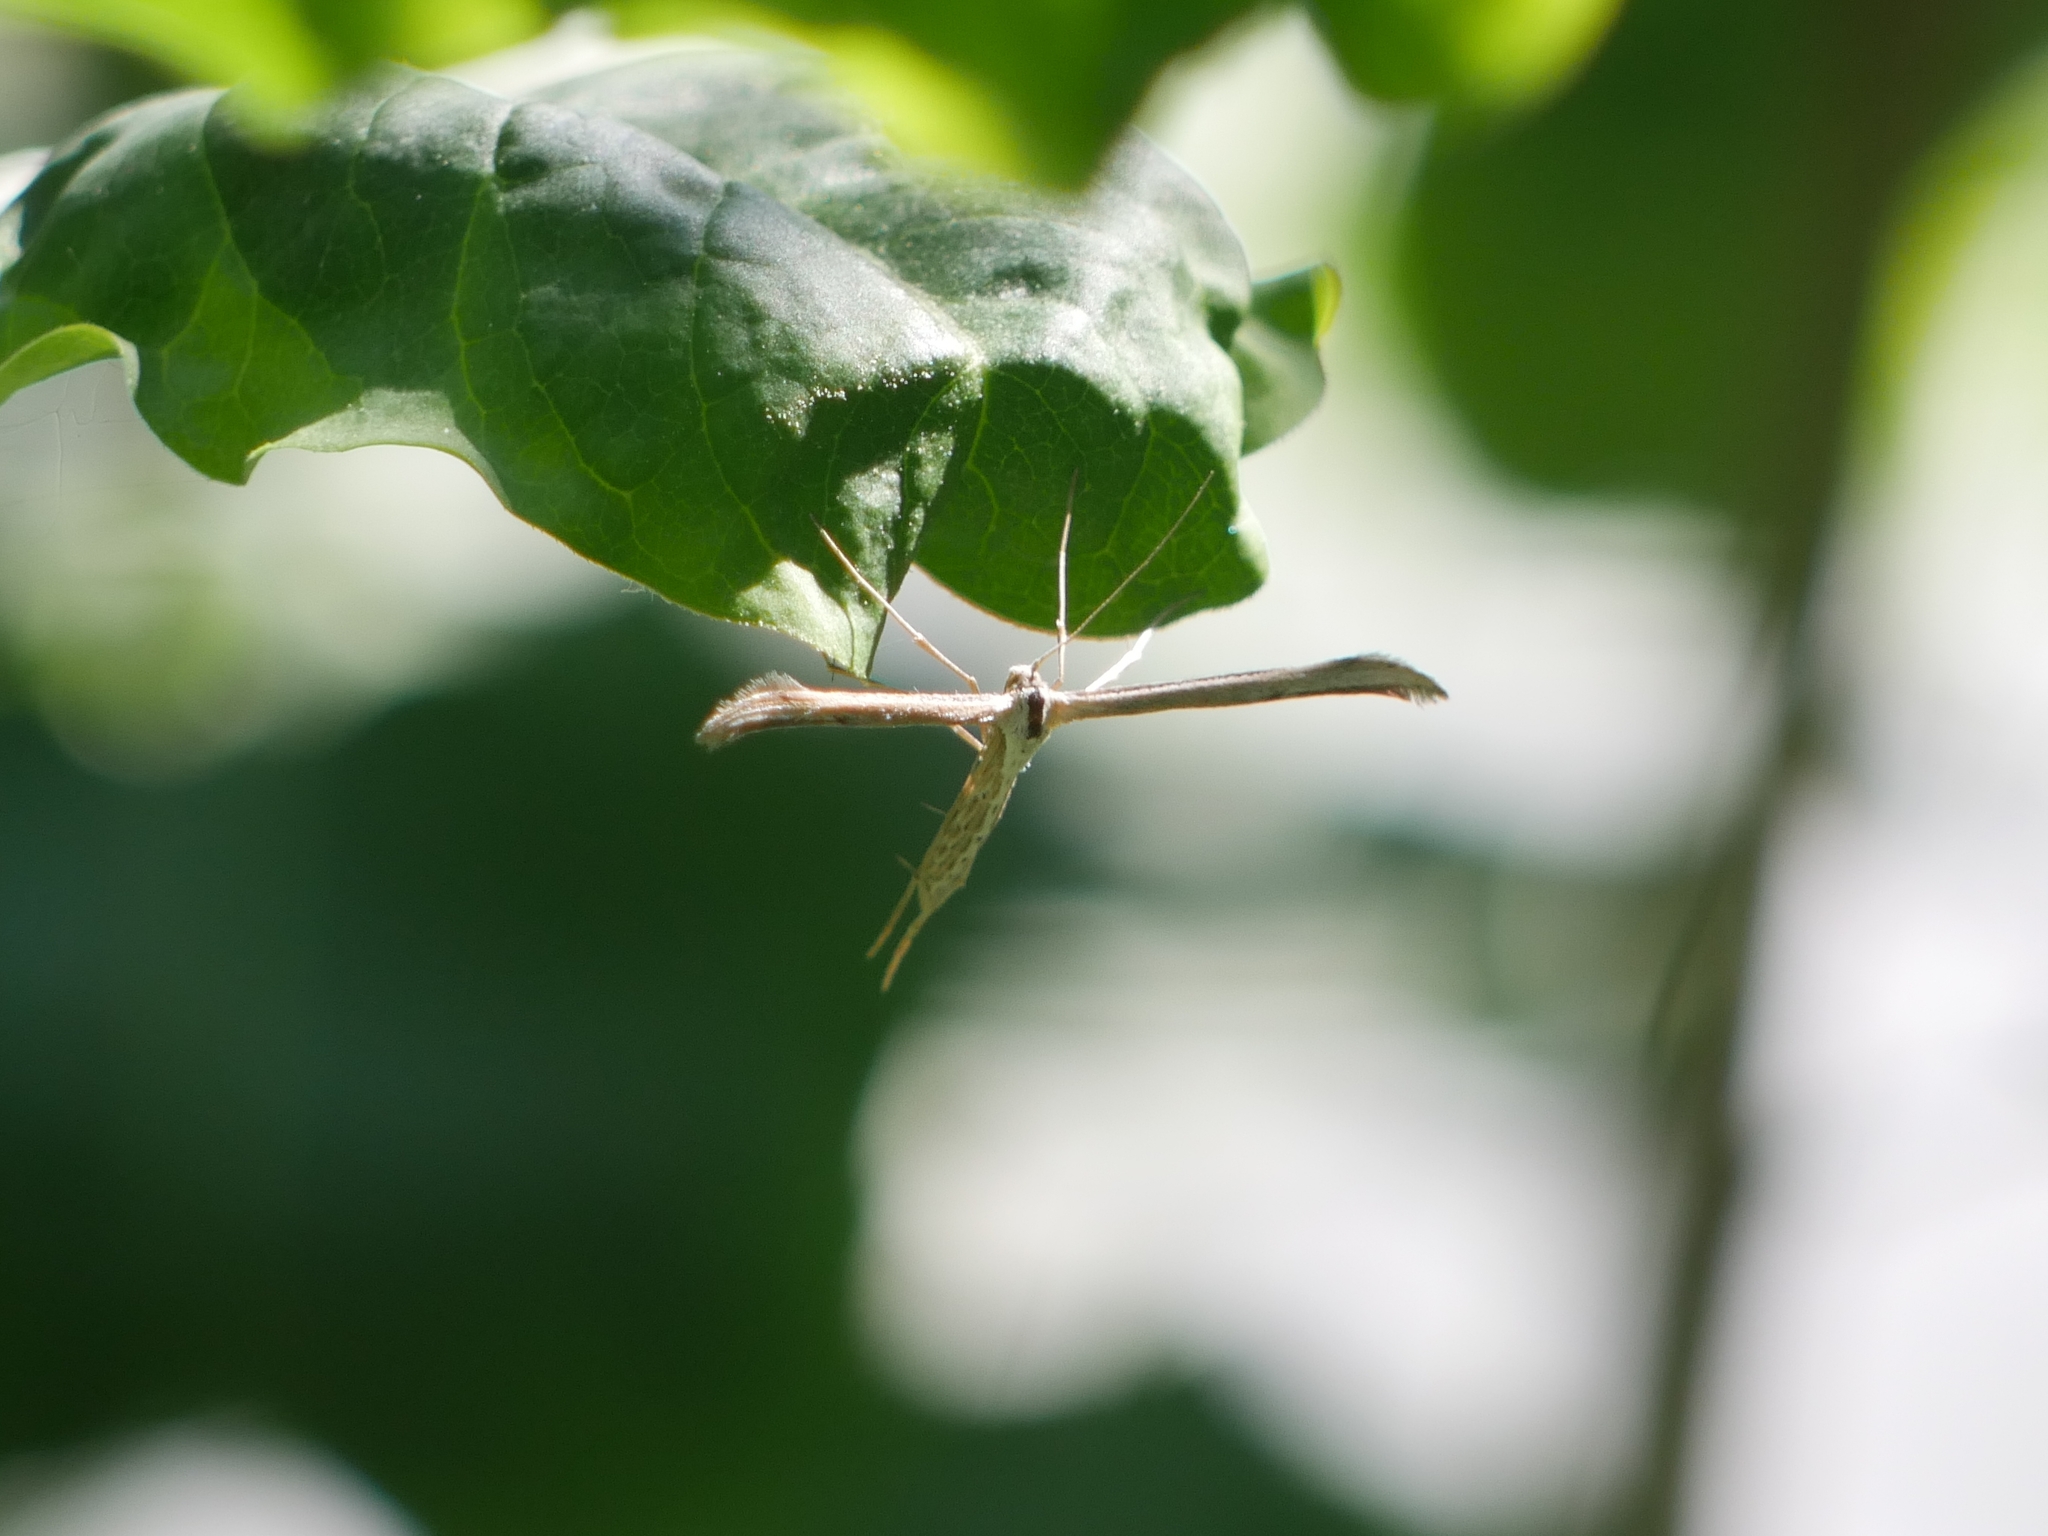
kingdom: Animalia
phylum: Arthropoda
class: Insecta
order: Lepidoptera
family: Pterophoridae
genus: Emmelina
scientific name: Emmelina monodactyla
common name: Common plume
